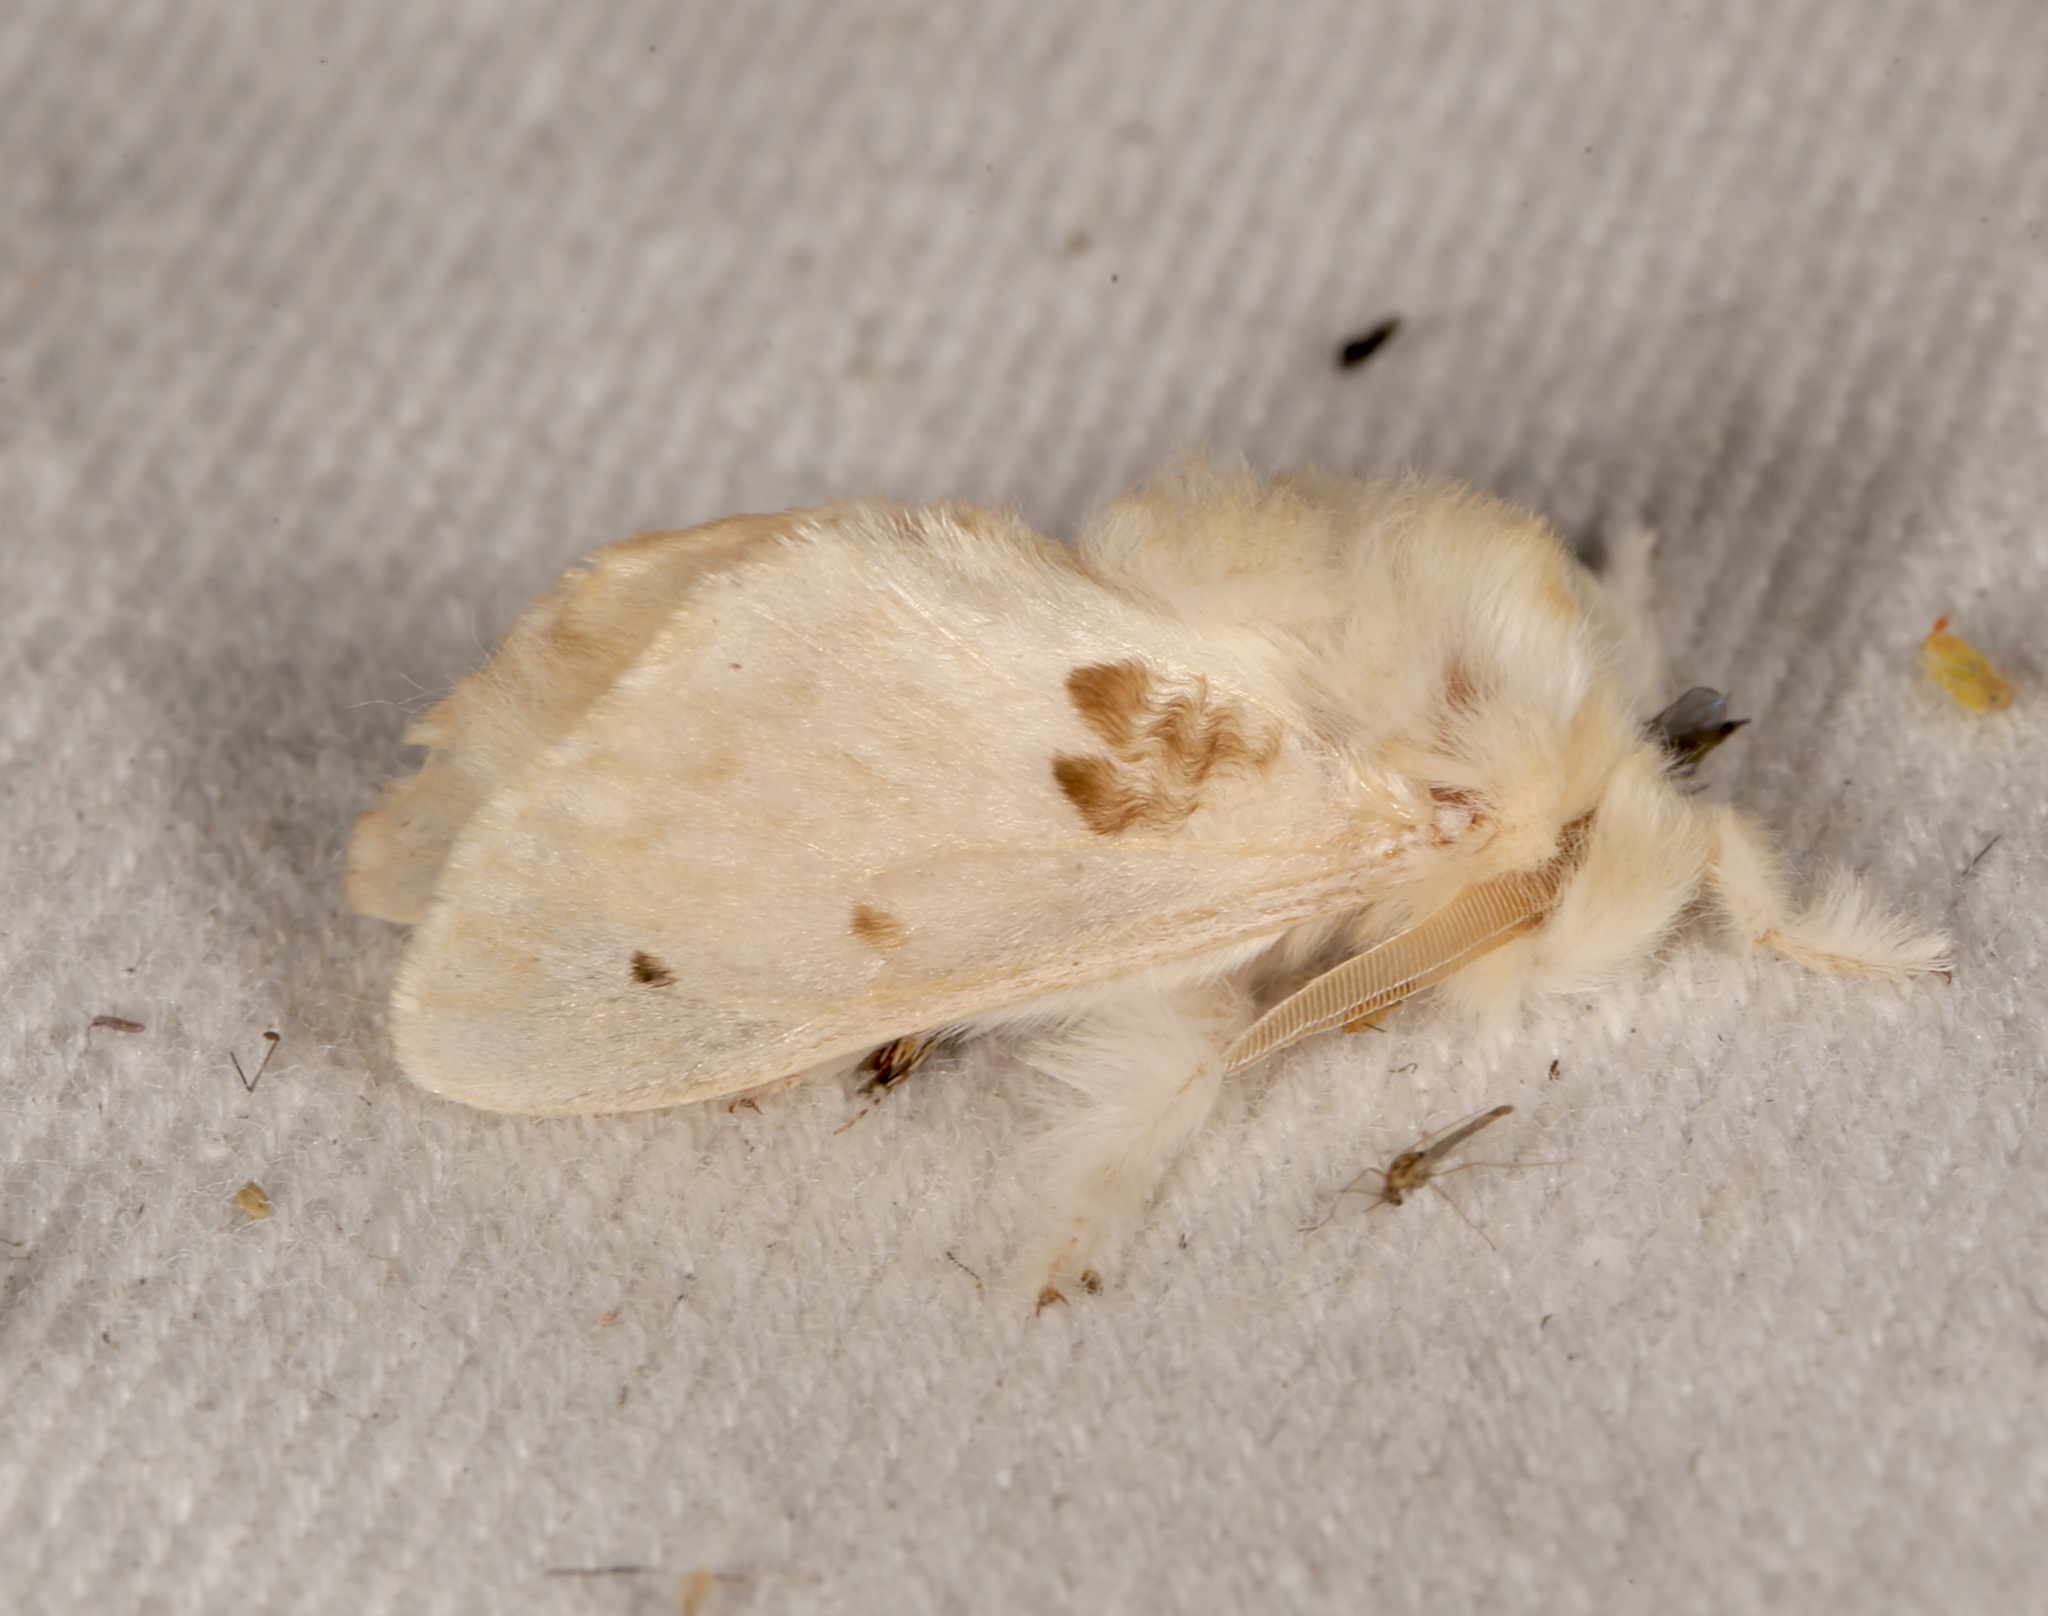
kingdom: Animalia
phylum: Arthropoda
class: Insecta
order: Lepidoptera
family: Megalopygidae
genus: Megalopyge
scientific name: Megalopyge lapena
